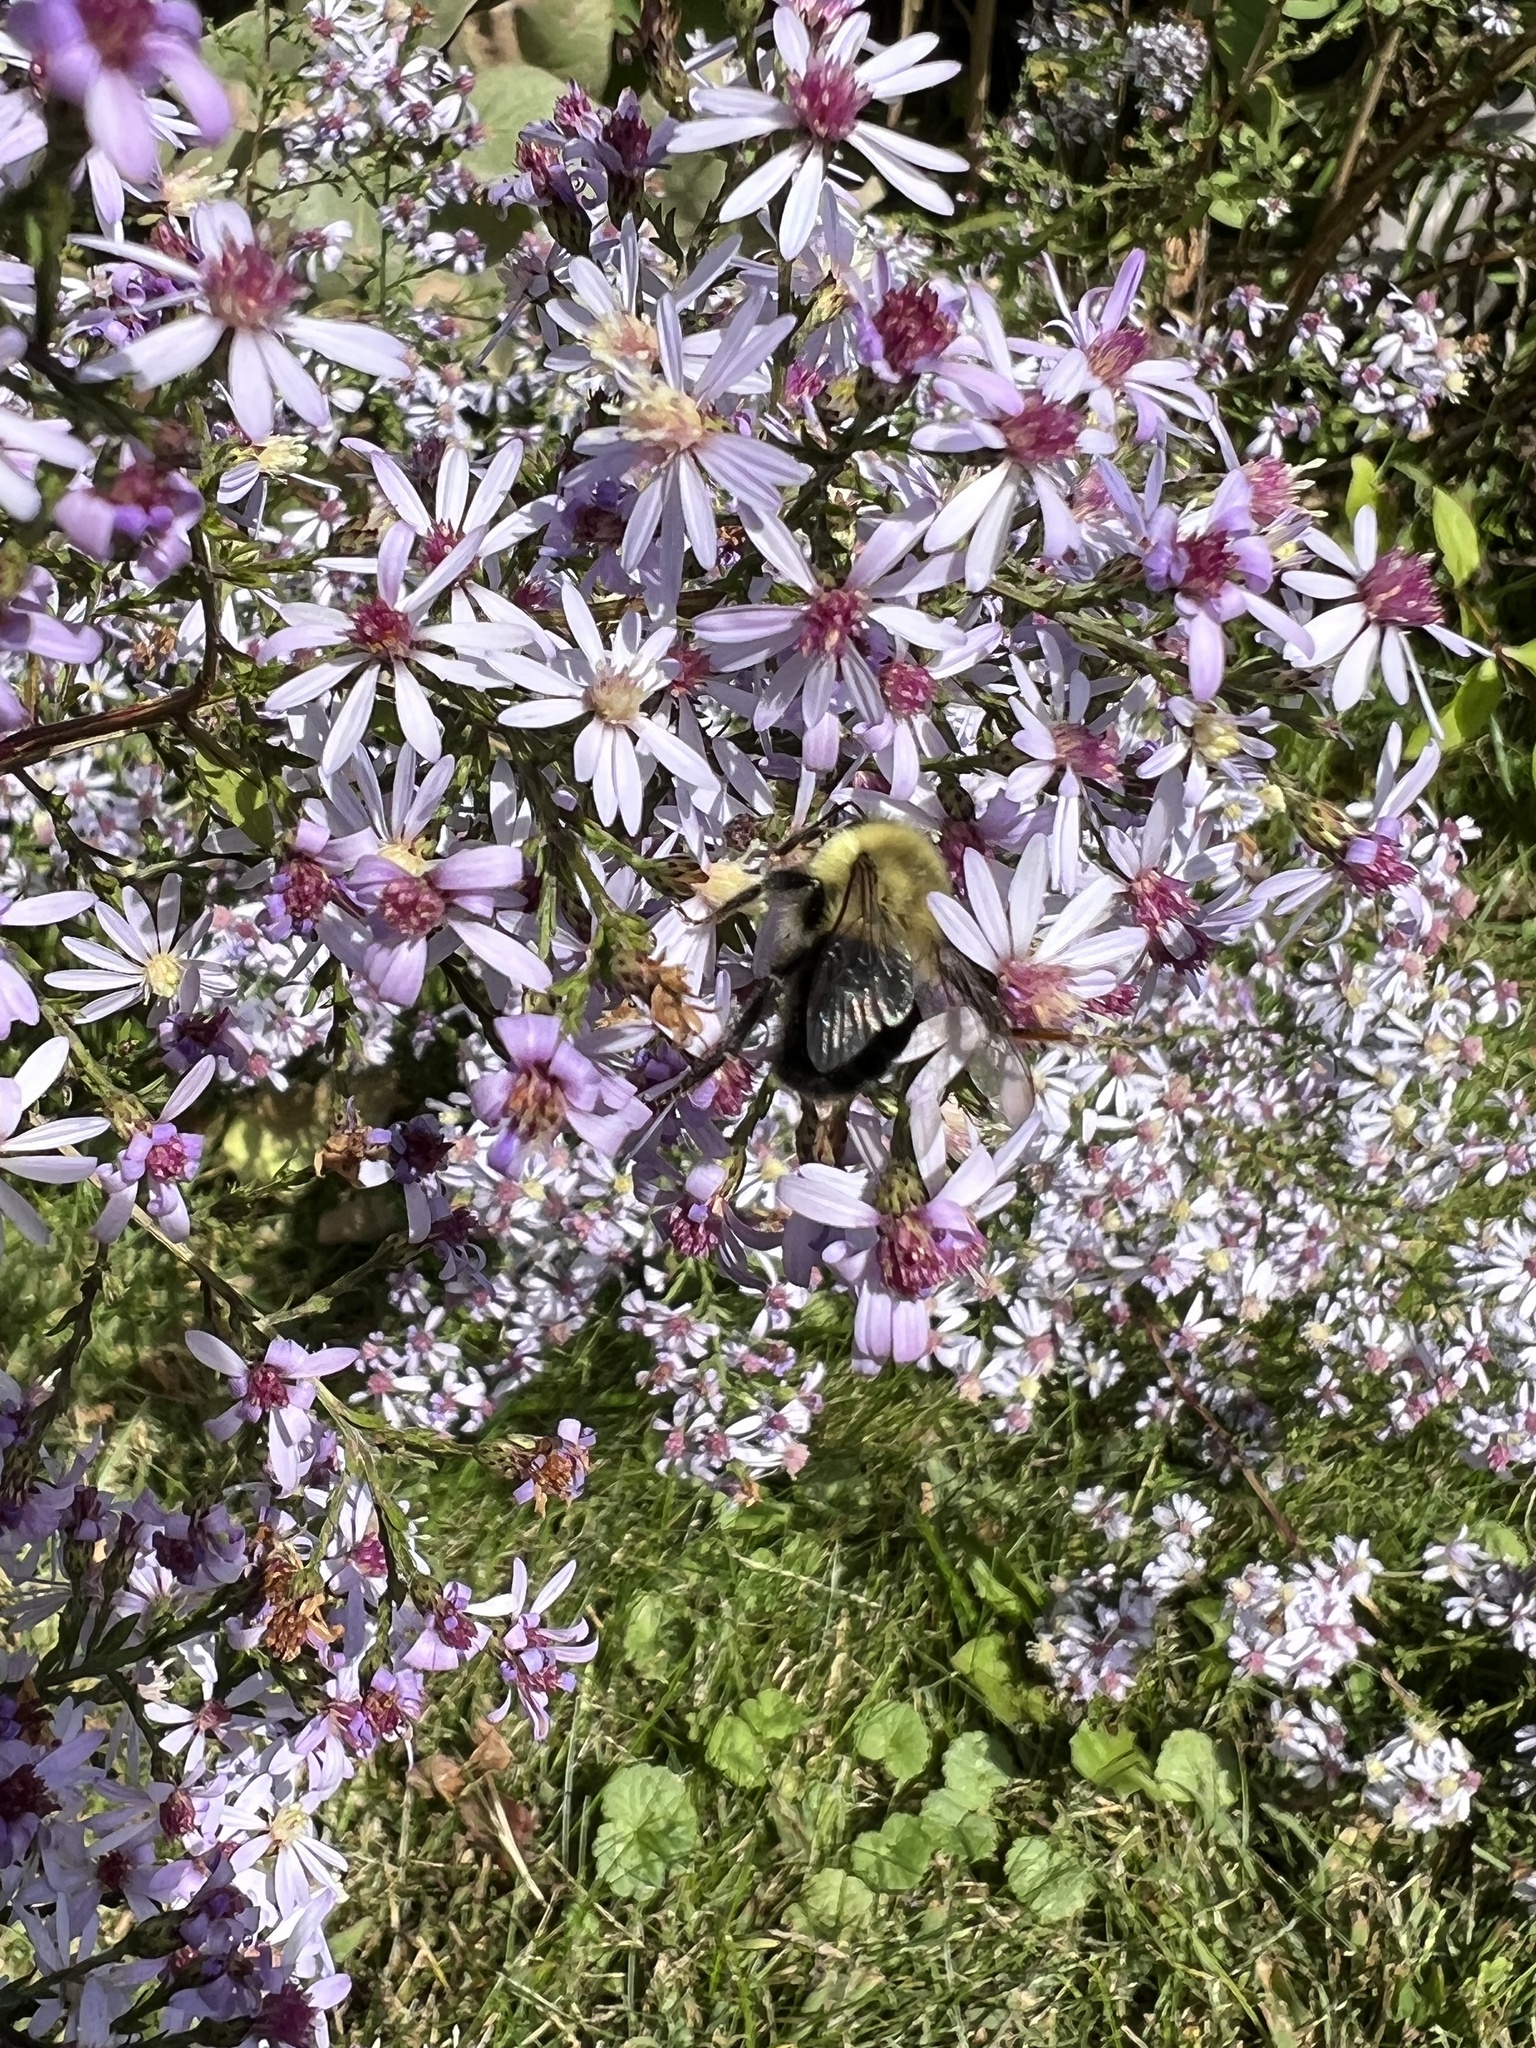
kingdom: Animalia
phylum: Arthropoda
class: Insecta
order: Hymenoptera
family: Apidae
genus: Bombus
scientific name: Bombus impatiens
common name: Common eastern bumble bee
